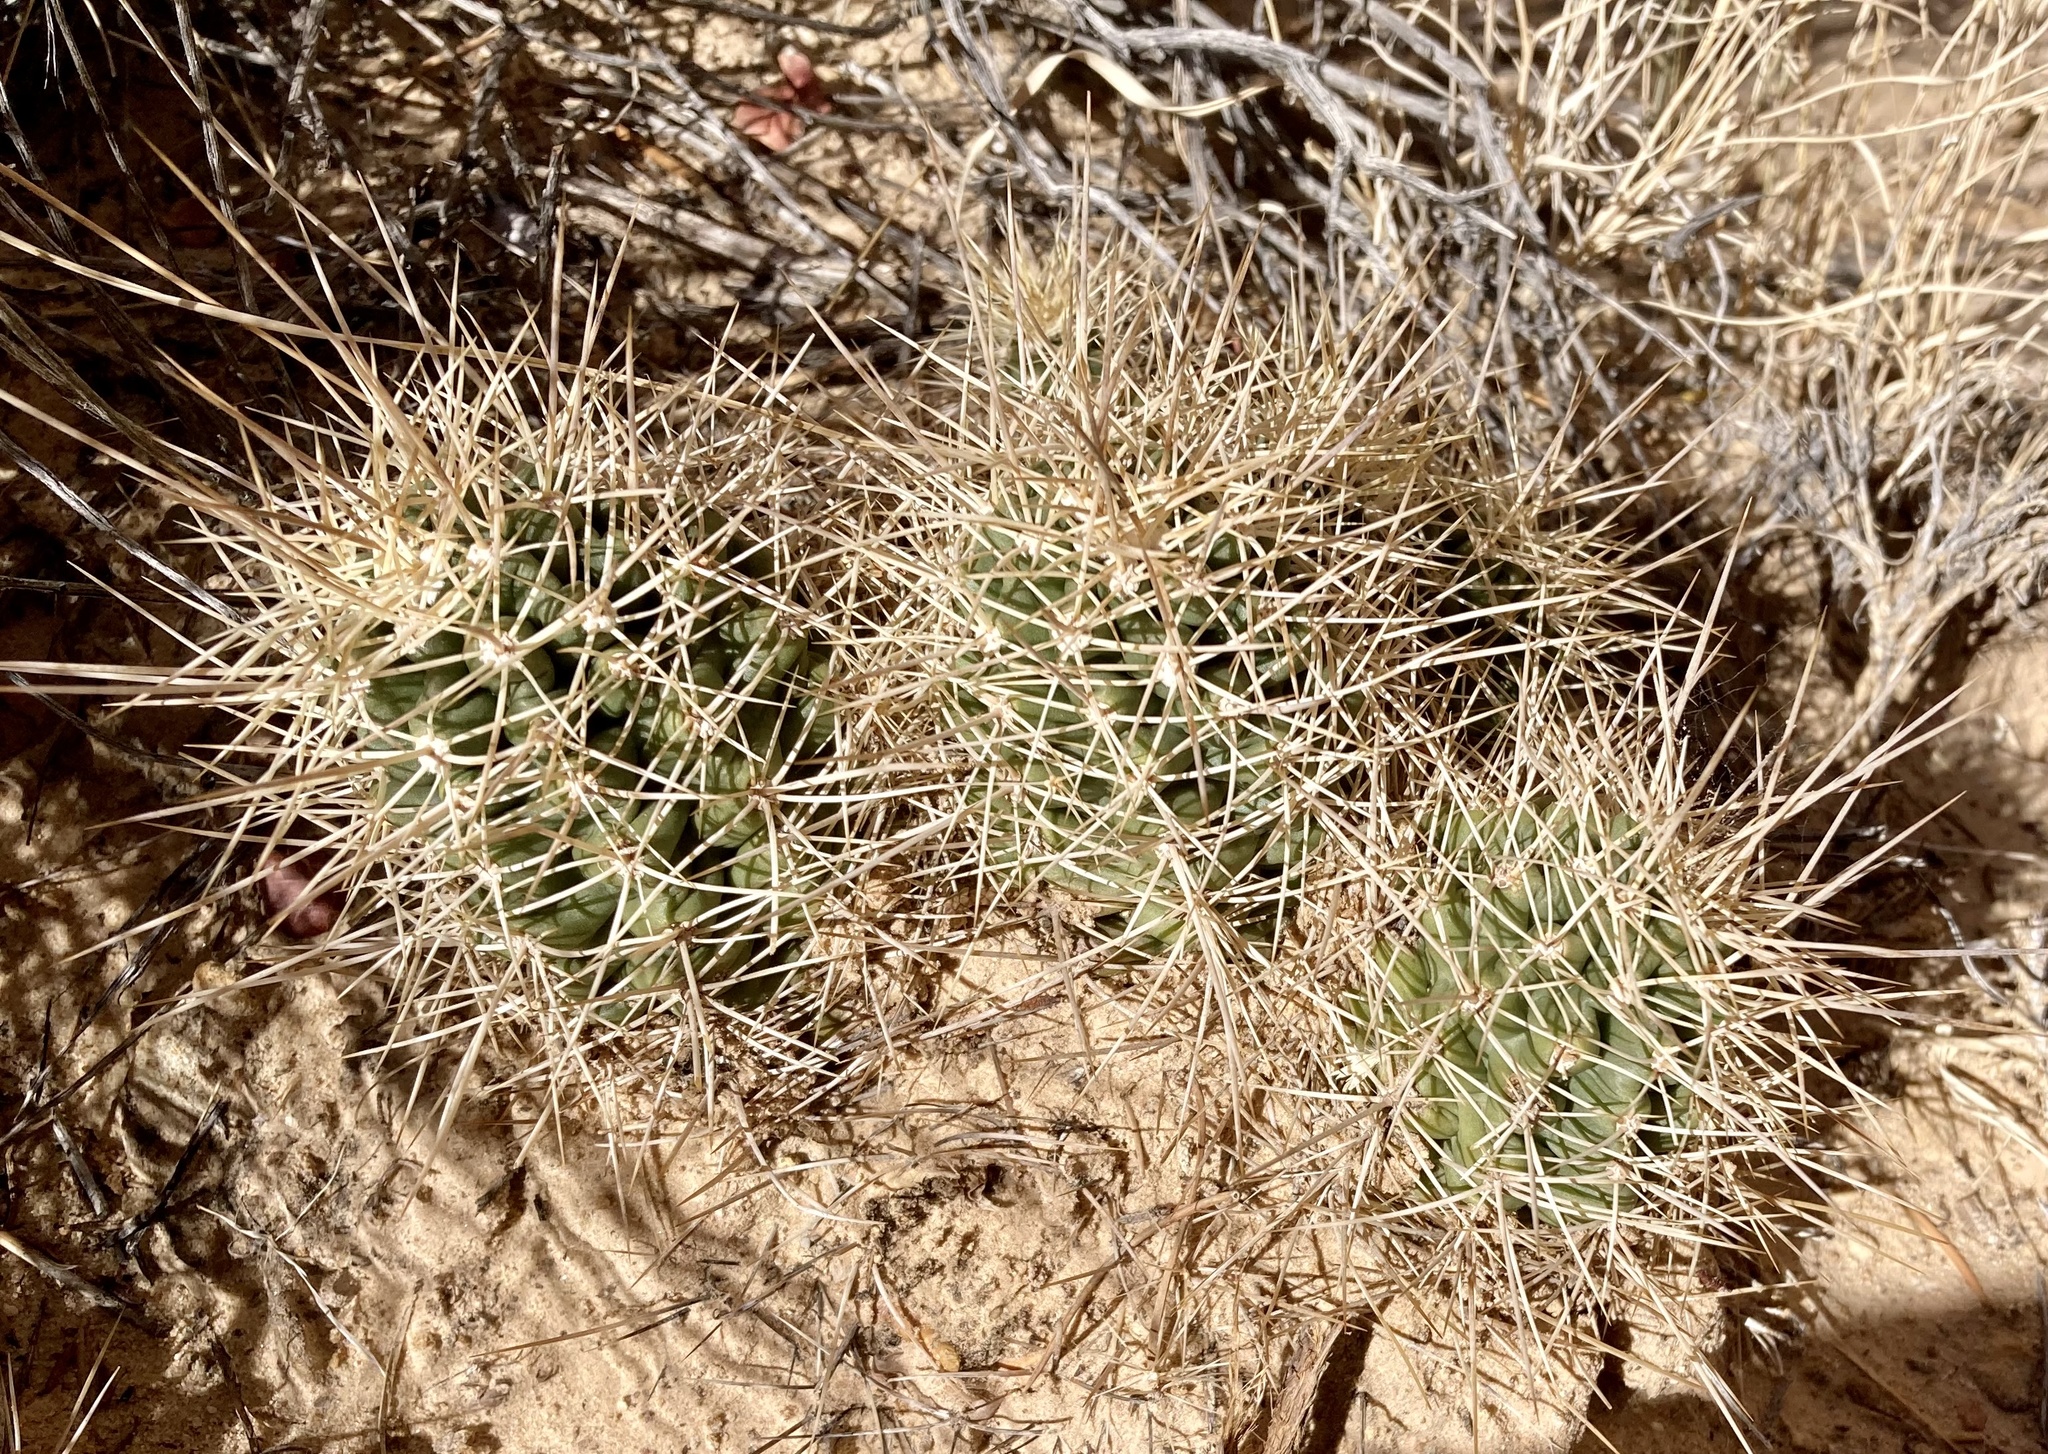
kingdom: Plantae
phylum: Tracheophyta
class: Magnoliopsida
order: Caryophyllales
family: Cactaceae
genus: Echinocereus
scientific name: Echinocereus triglochidiatus
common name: Claretcup hedgehog
